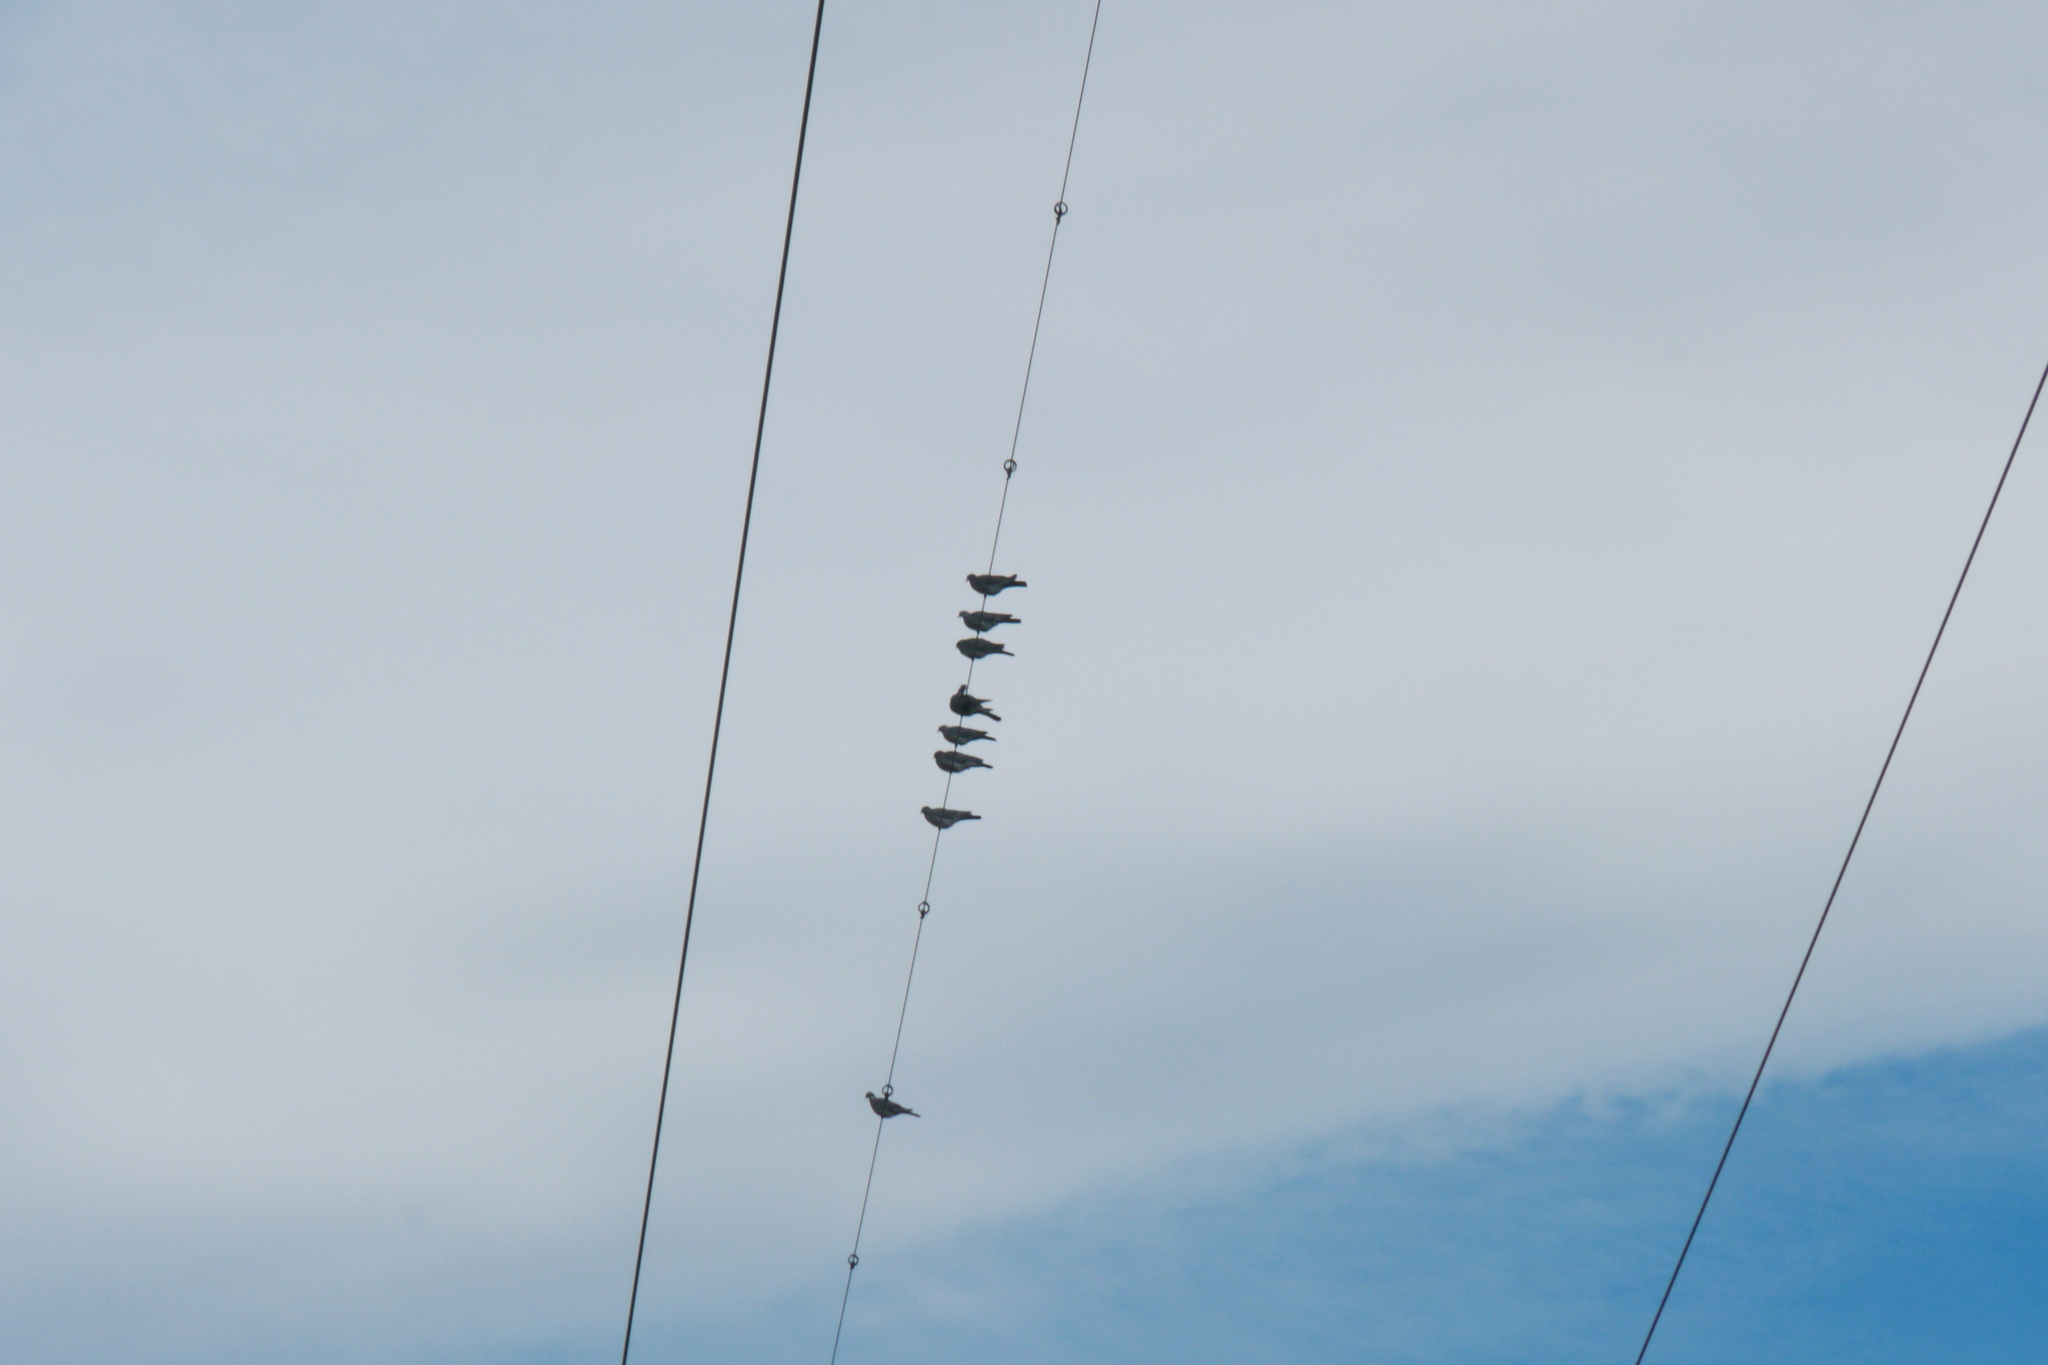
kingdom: Animalia
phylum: Chordata
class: Aves
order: Columbiformes
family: Columbidae
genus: Columba
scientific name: Columba palumbus
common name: Common wood pigeon
